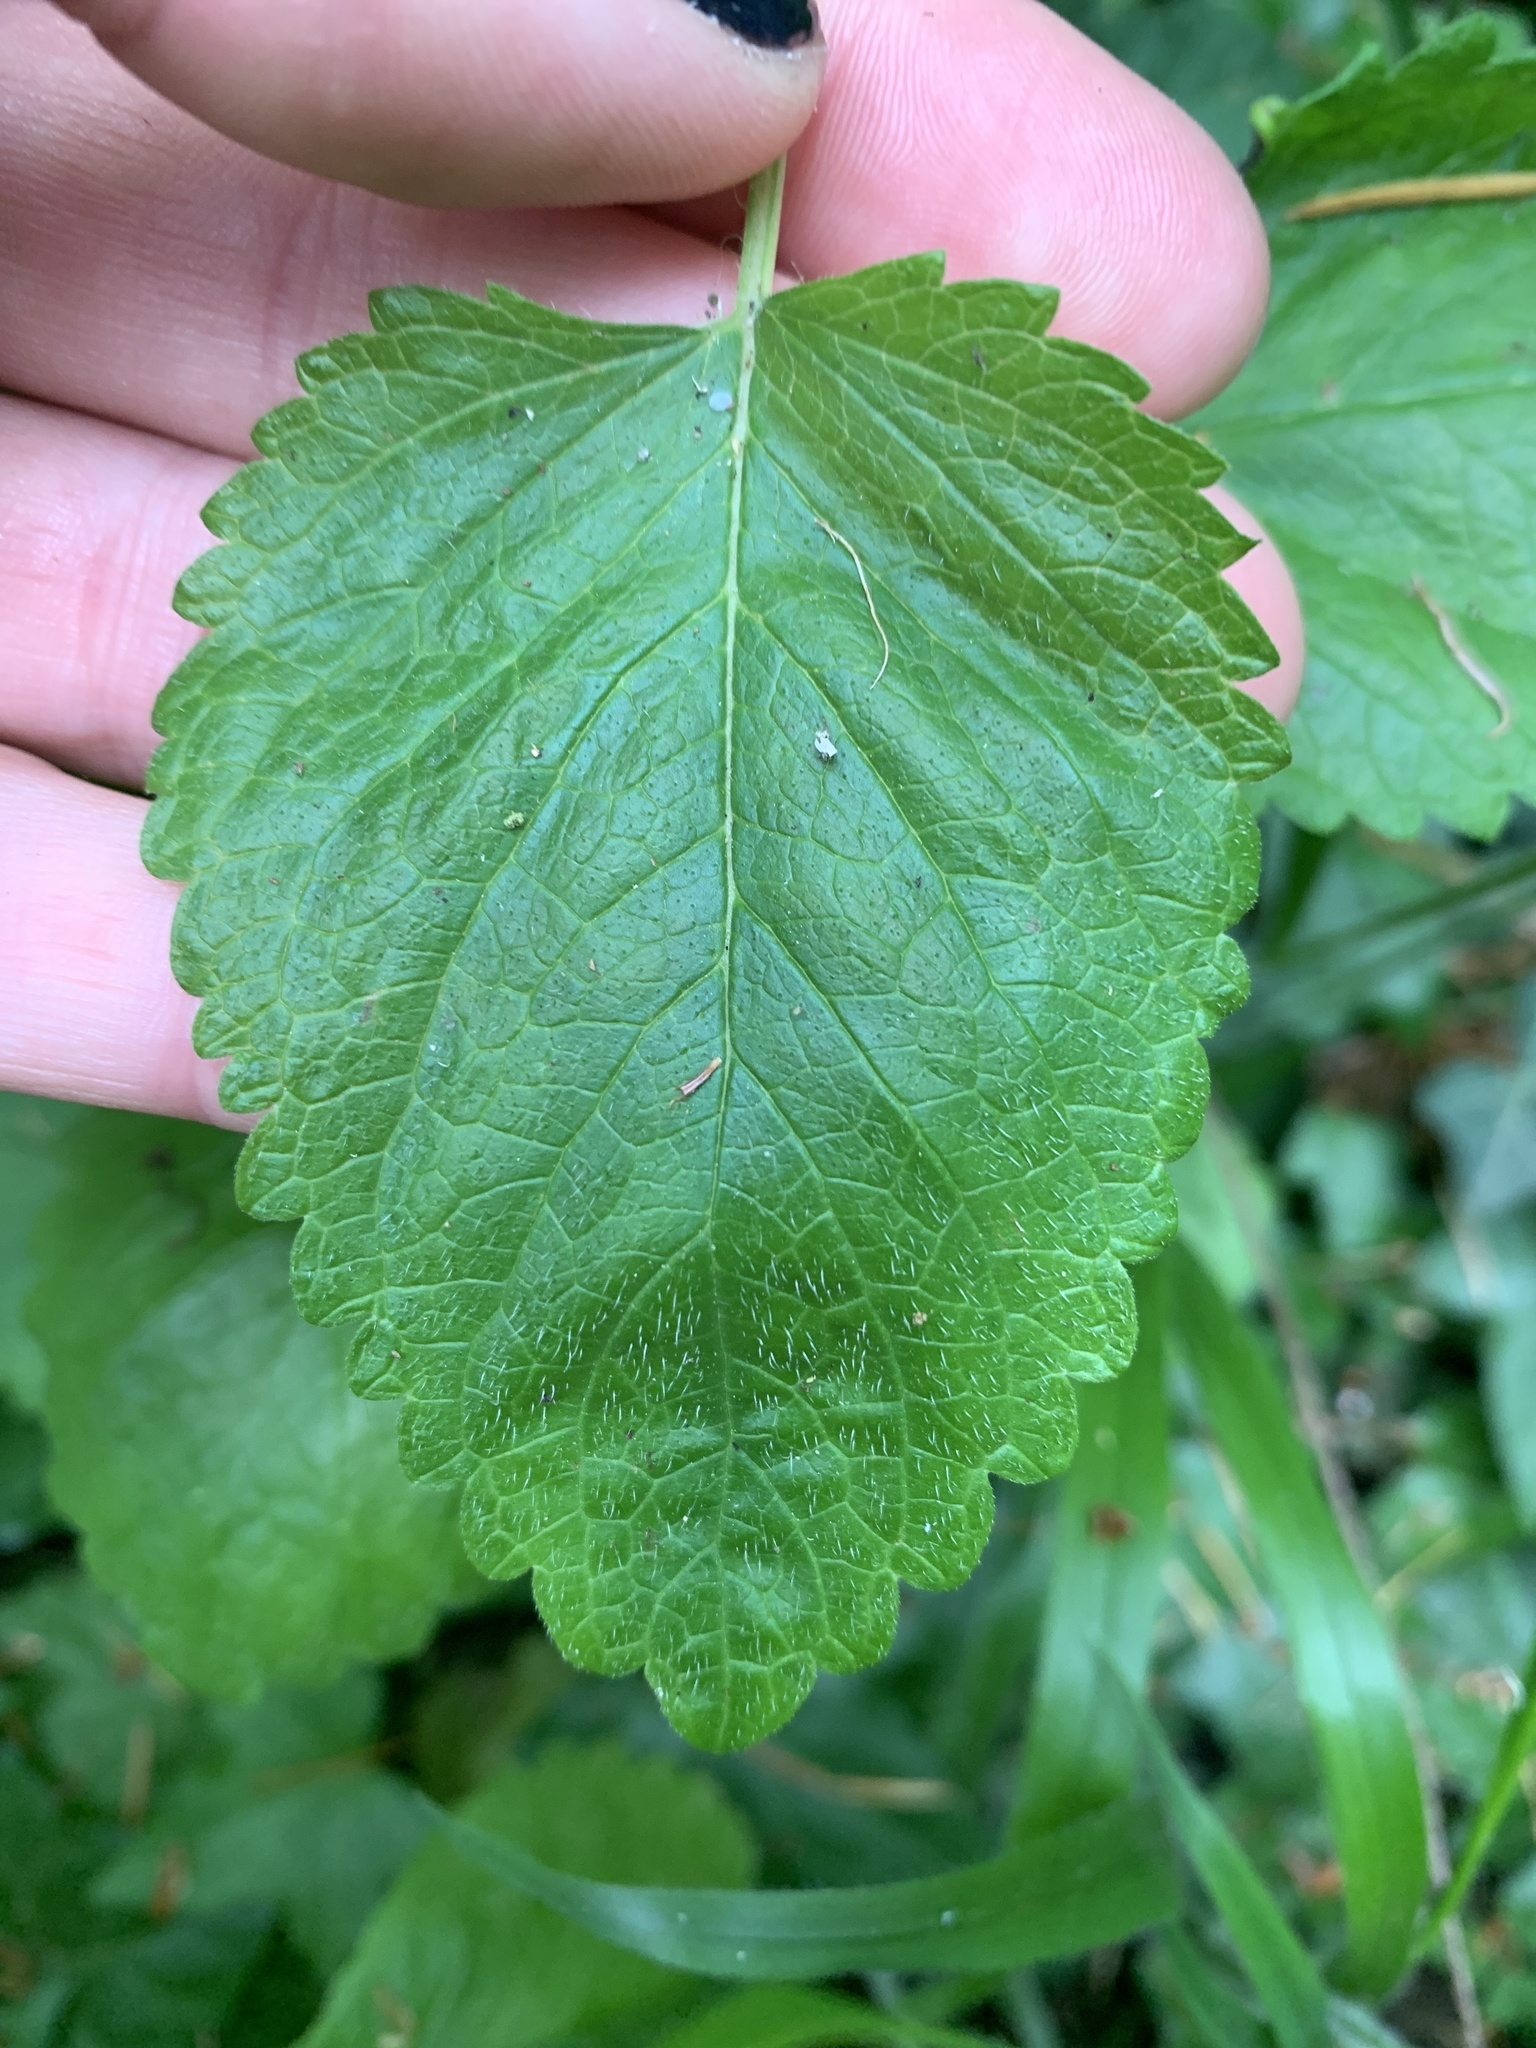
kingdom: Plantae
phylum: Tracheophyta
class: Magnoliopsida
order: Lamiales
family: Lamiaceae
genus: Melissa
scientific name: Melissa officinalis
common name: Balm
